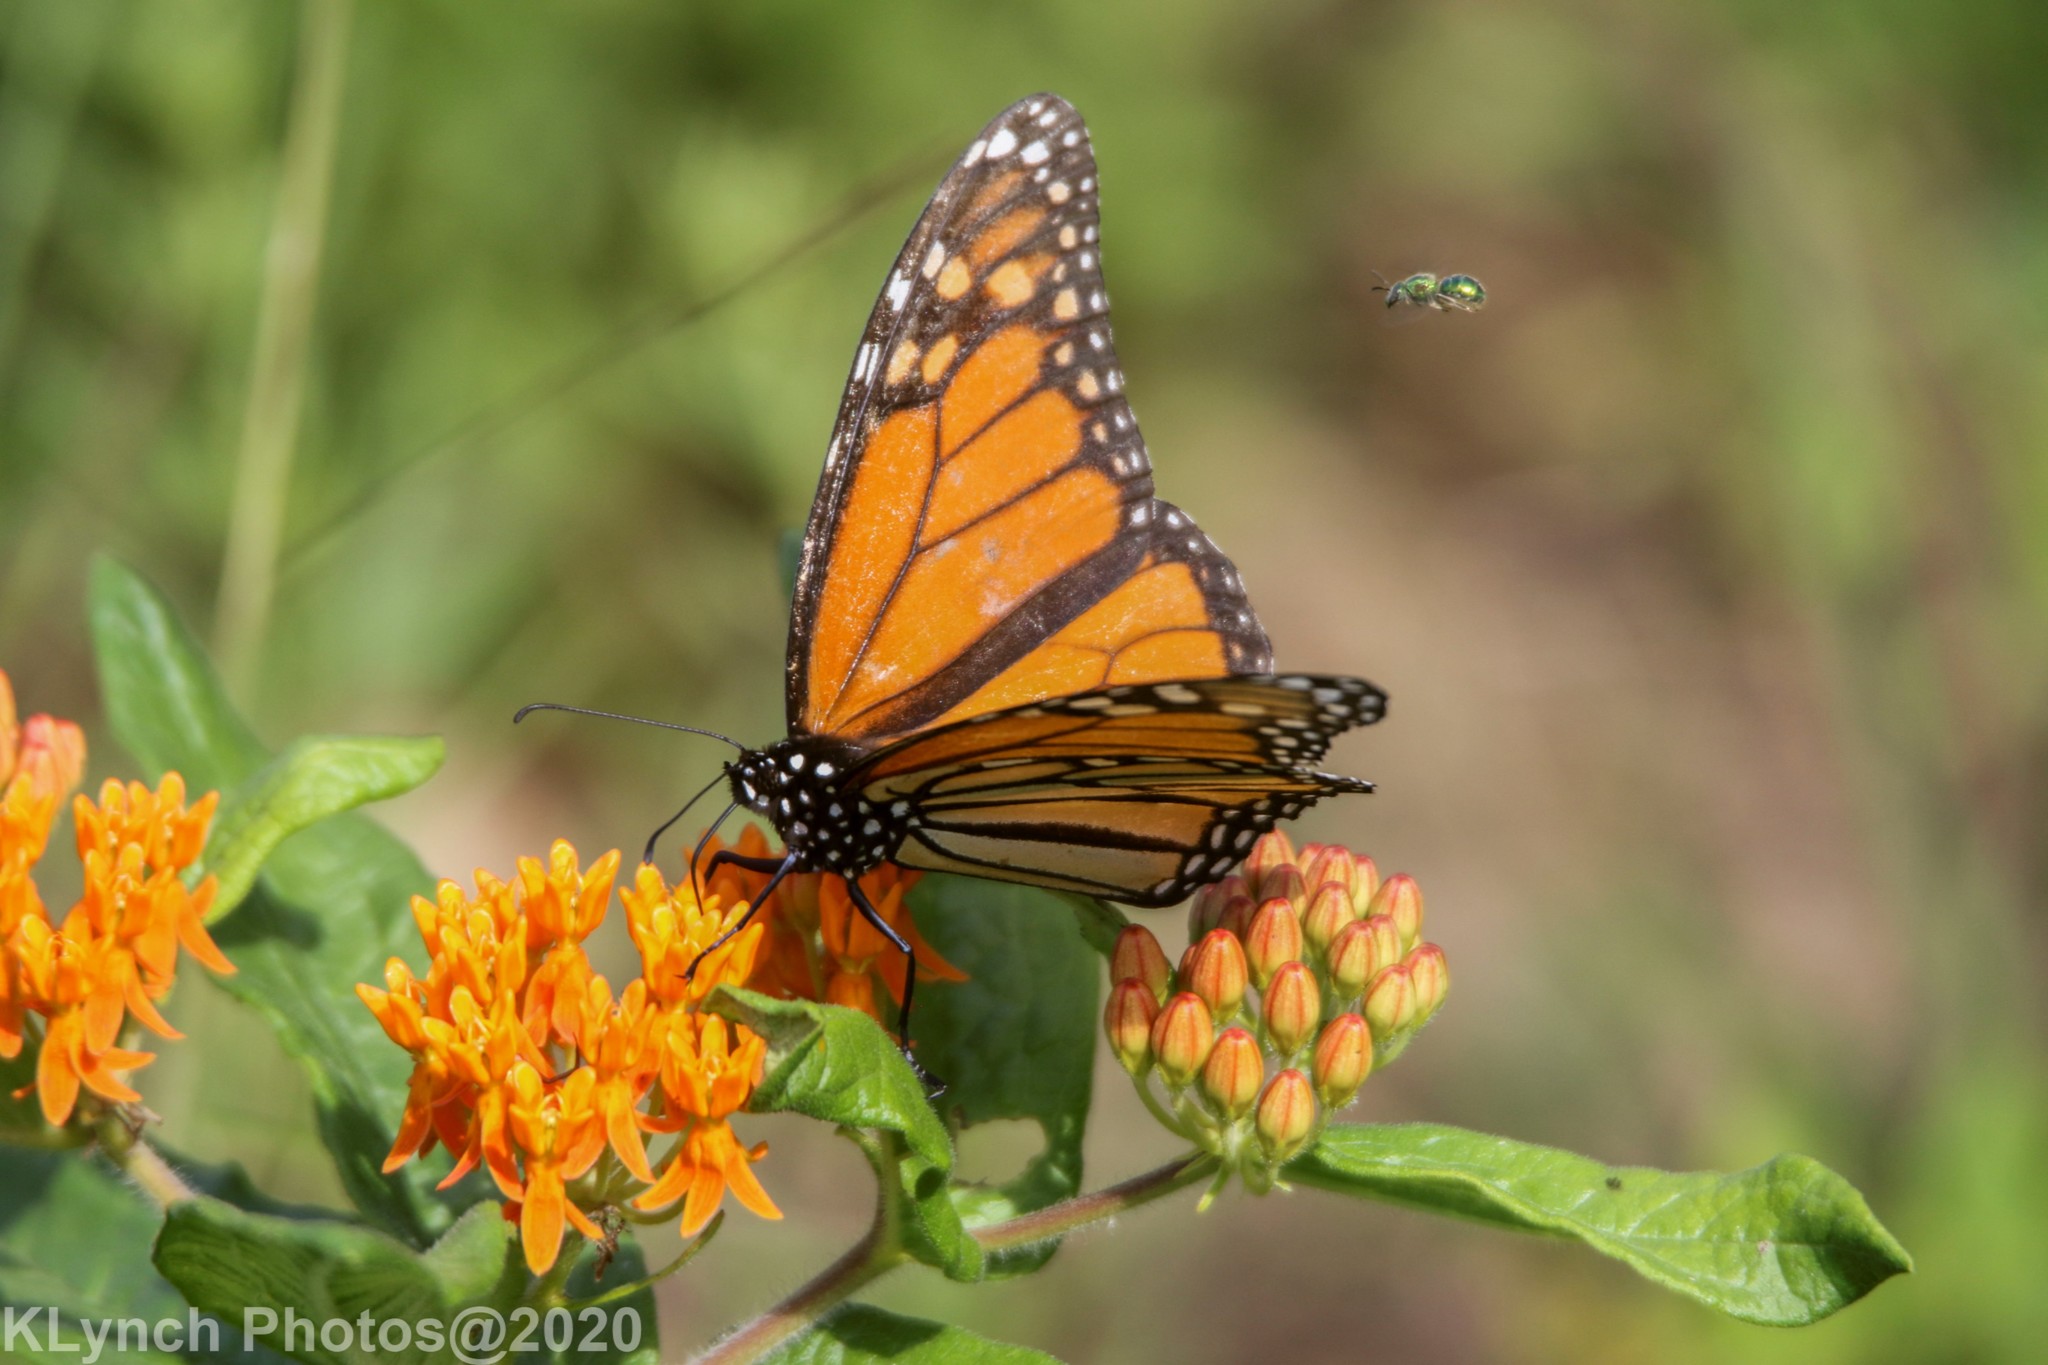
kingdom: Animalia
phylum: Arthropoda
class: Insecta
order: Lepidoptera
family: Nymphalidae
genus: Danaus
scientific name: Danaus plexippus
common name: Monarch
